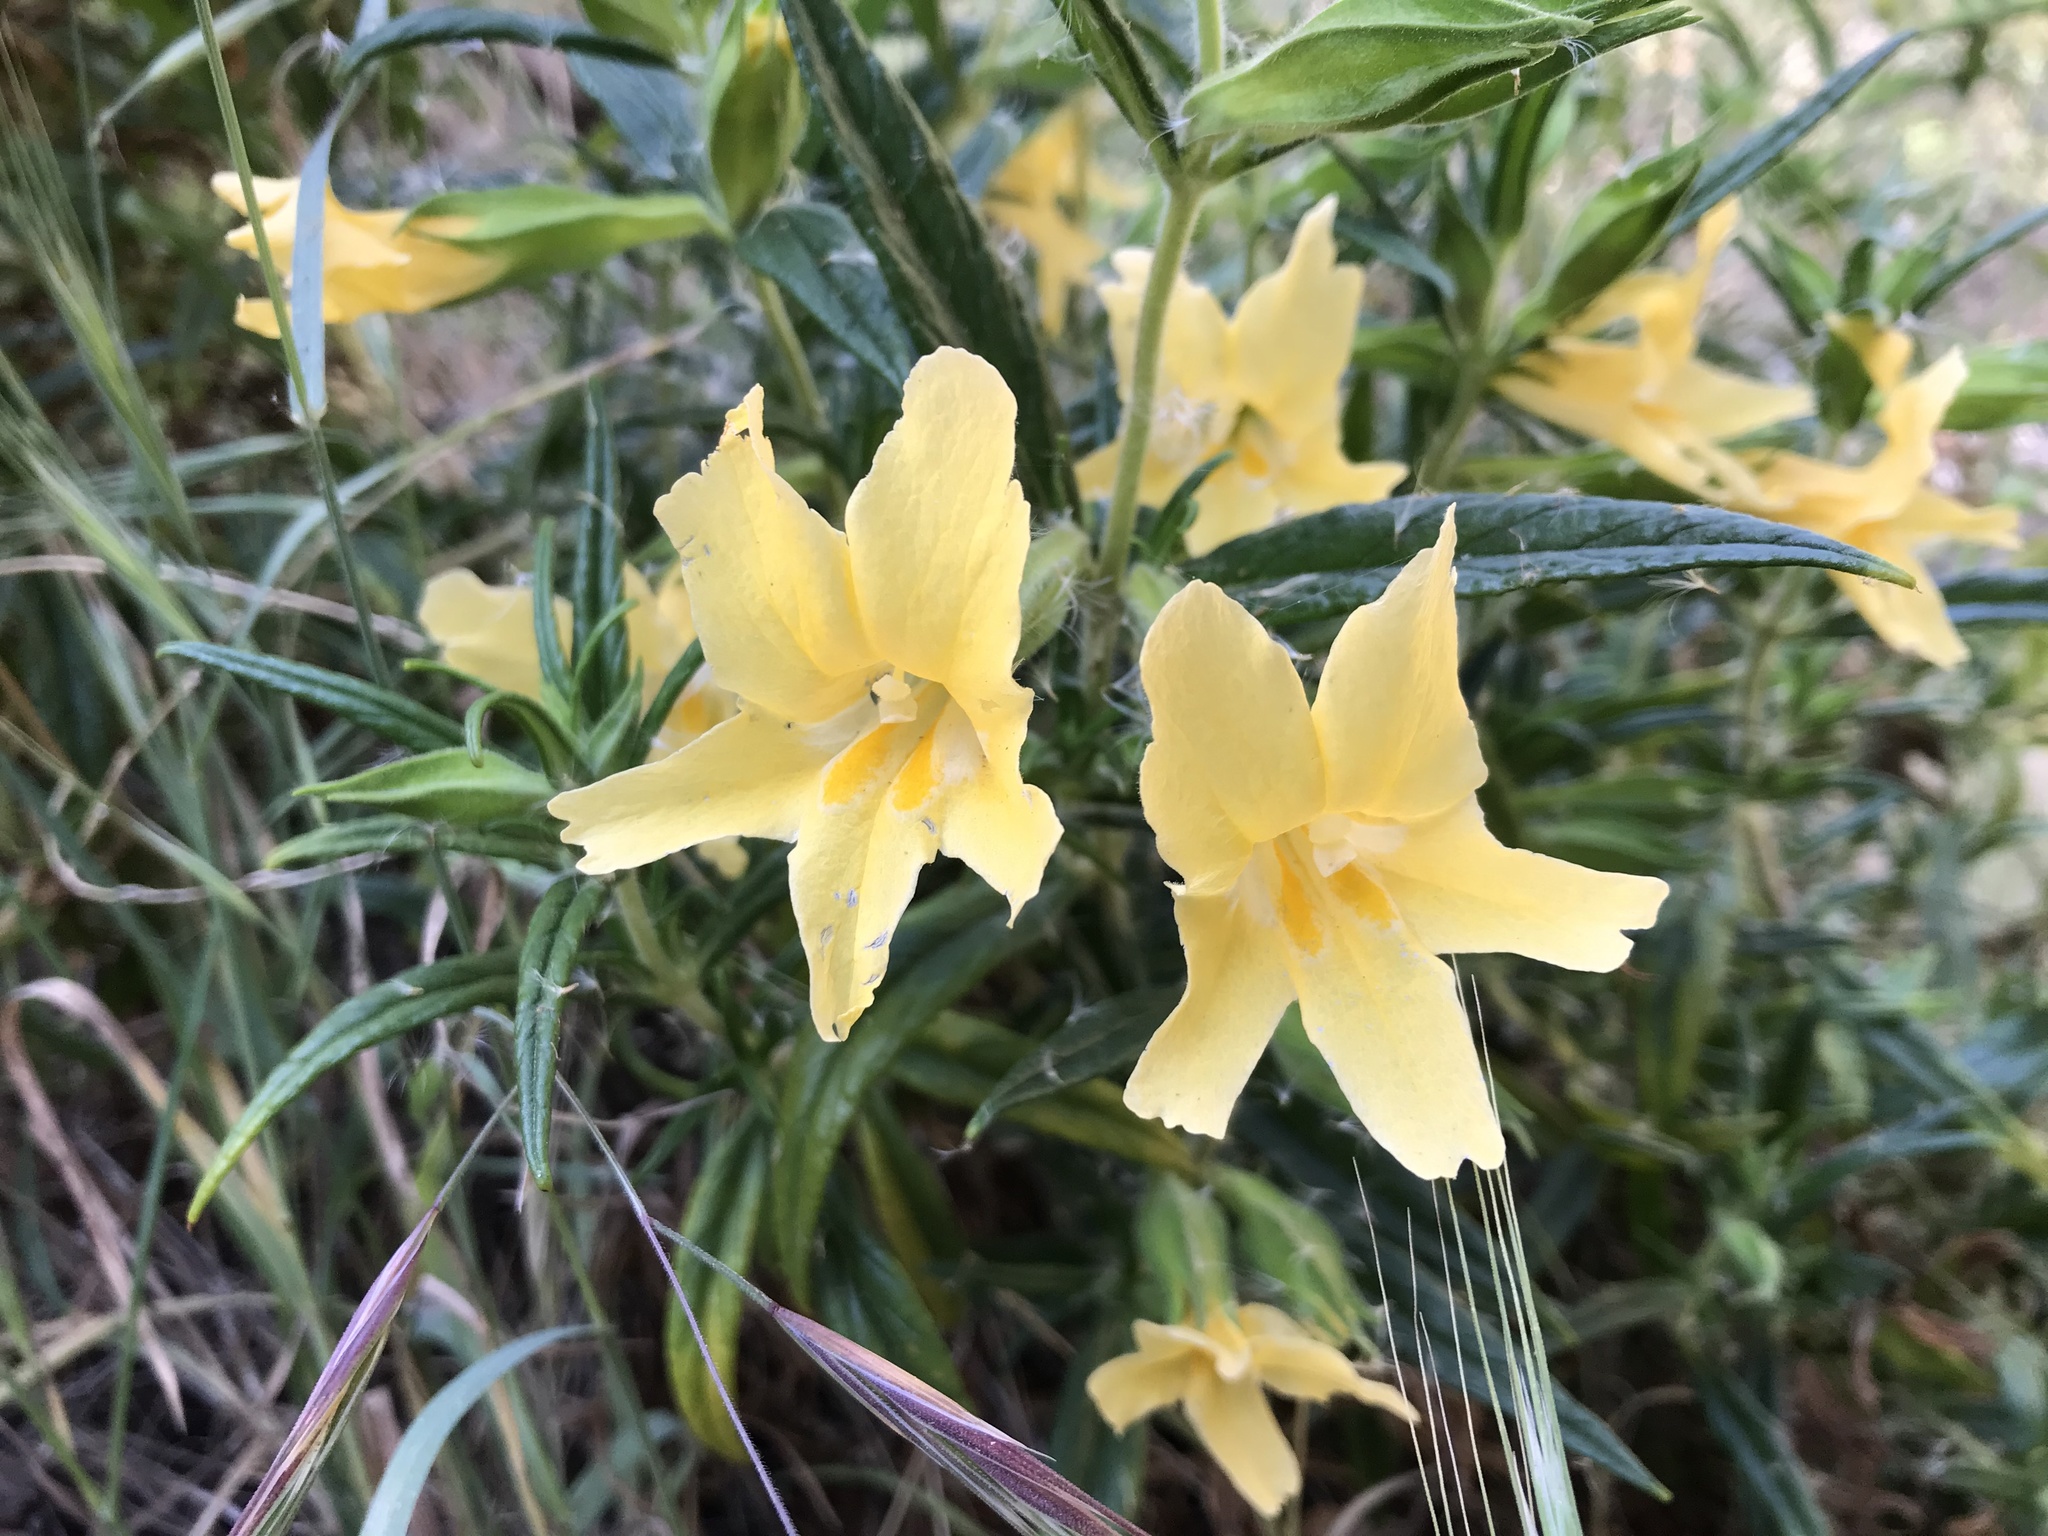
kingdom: Plantae
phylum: Tracheophyta
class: Magnoliopsida
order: Lamiales
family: Phrymaceae
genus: Diplacus
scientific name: Diplacus longiflorus
